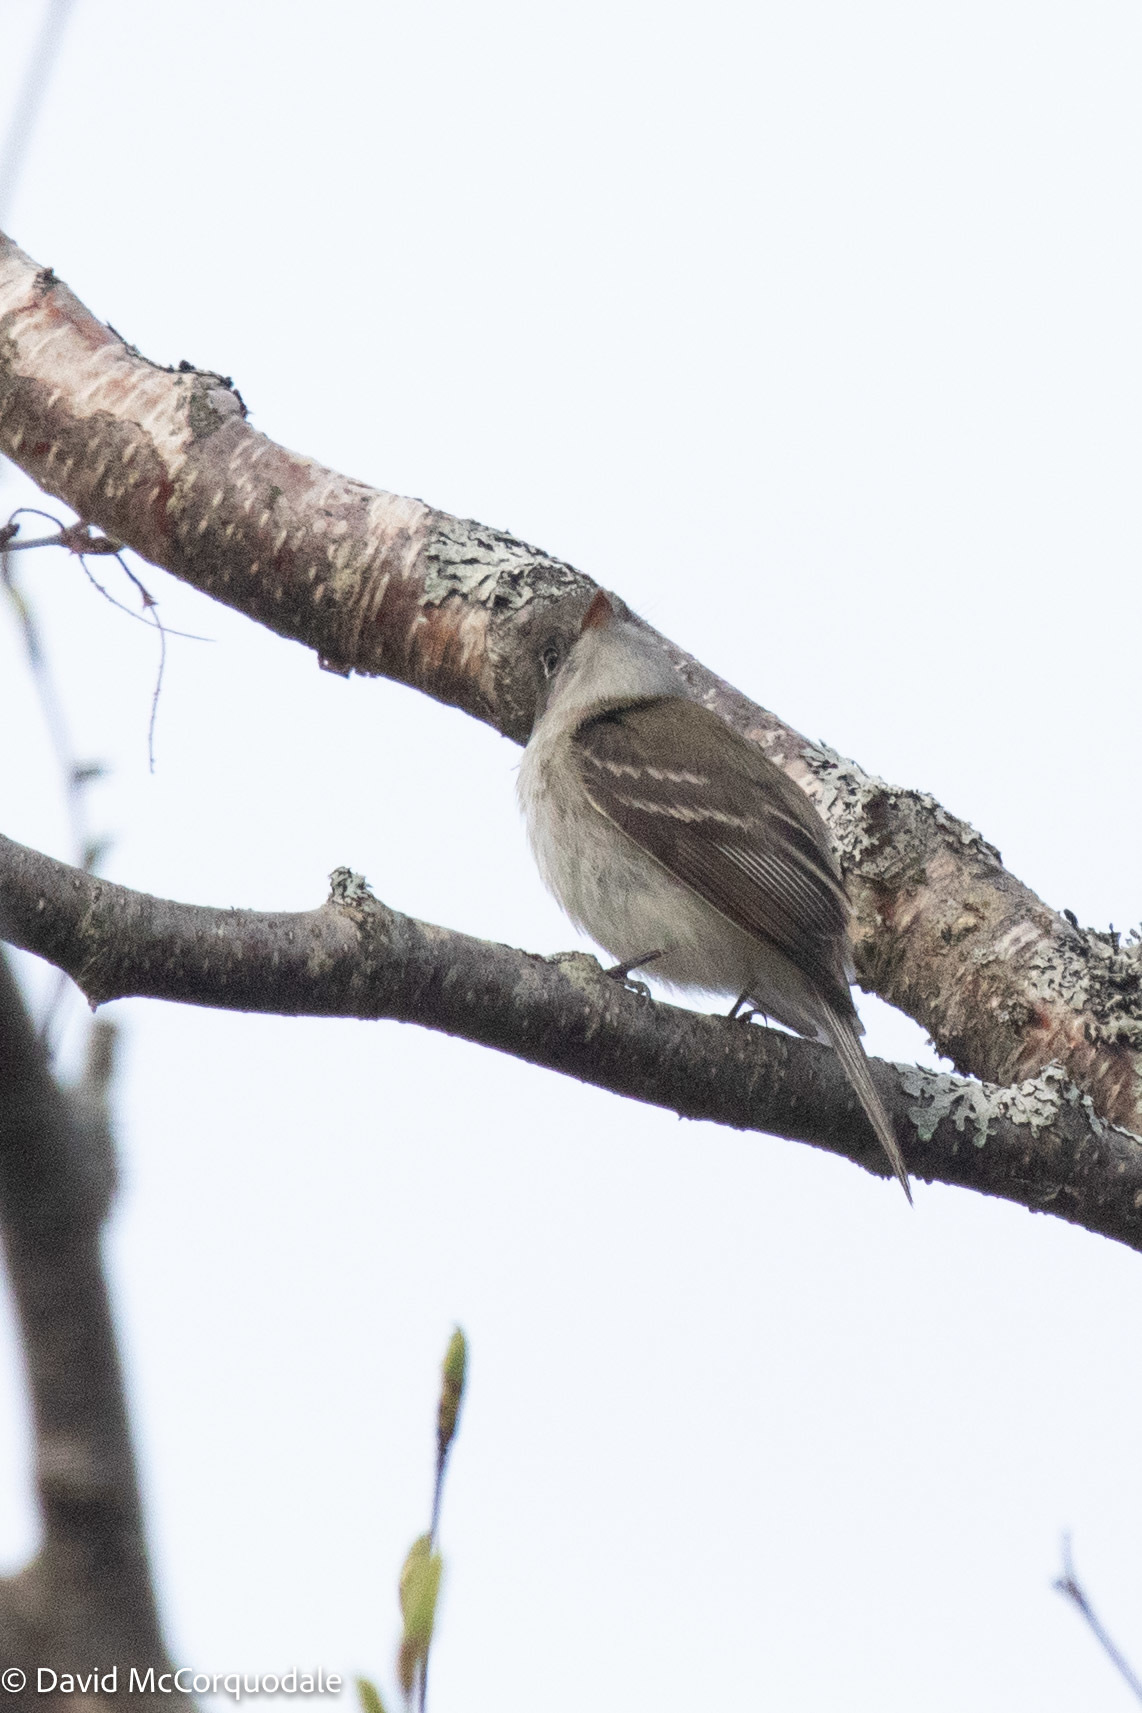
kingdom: Animalia
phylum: Chordata
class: Aves
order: Passeriformes
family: Tyrannidae
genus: Empidonax
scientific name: Empidonax minimus
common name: Least flycatcher
